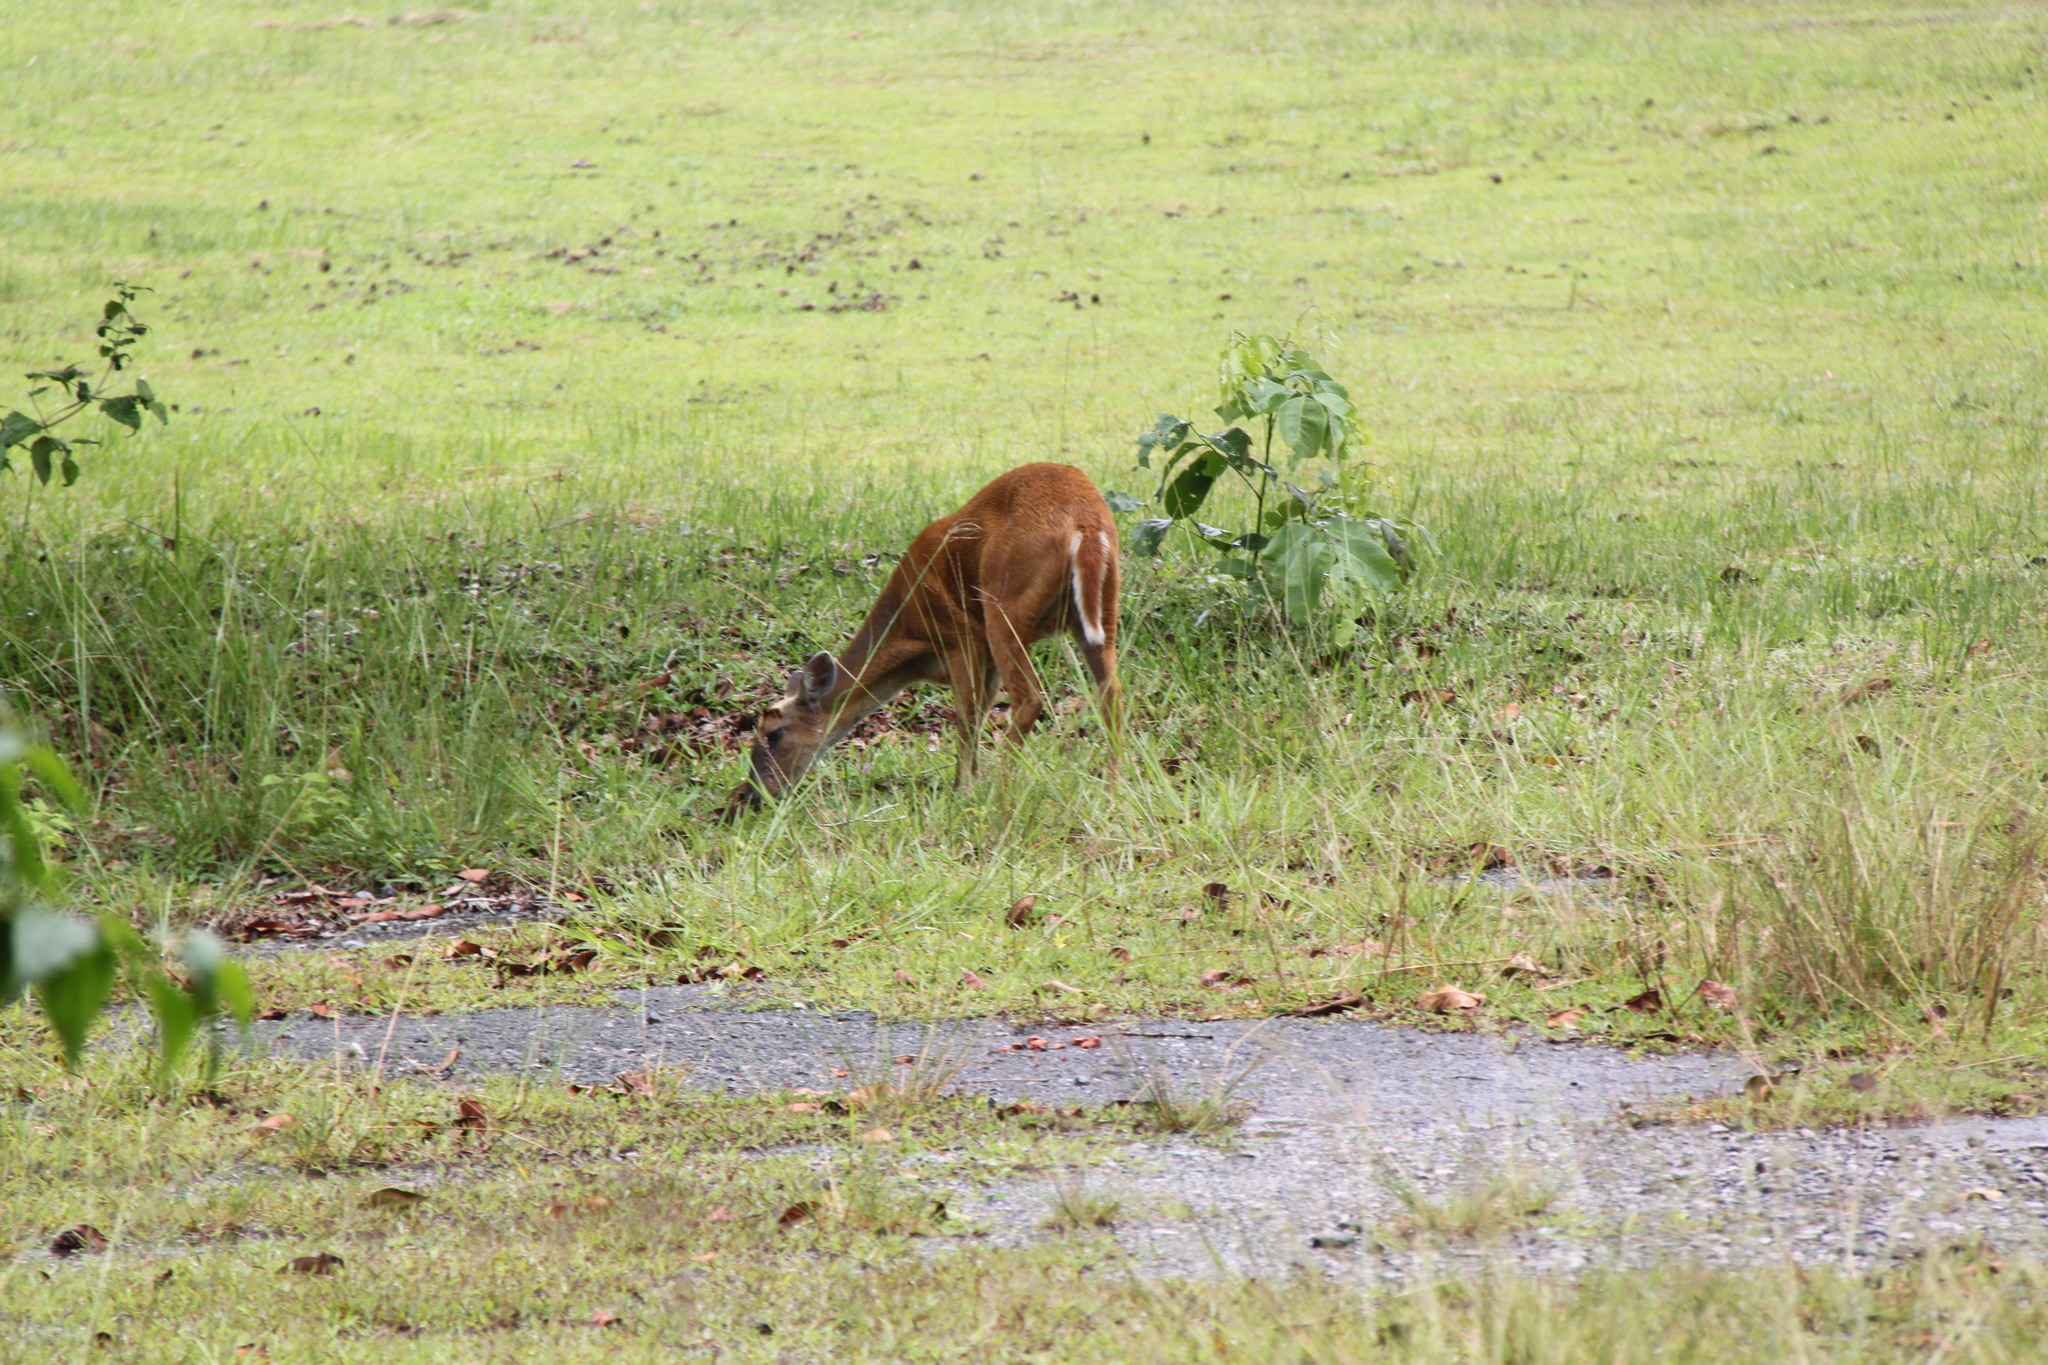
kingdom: Animalia
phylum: Chordata
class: Mammalia
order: Artiodactyla
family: Cervidae
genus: Muntiacus
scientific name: Muntiacus muntjak
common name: Indian muntjac
